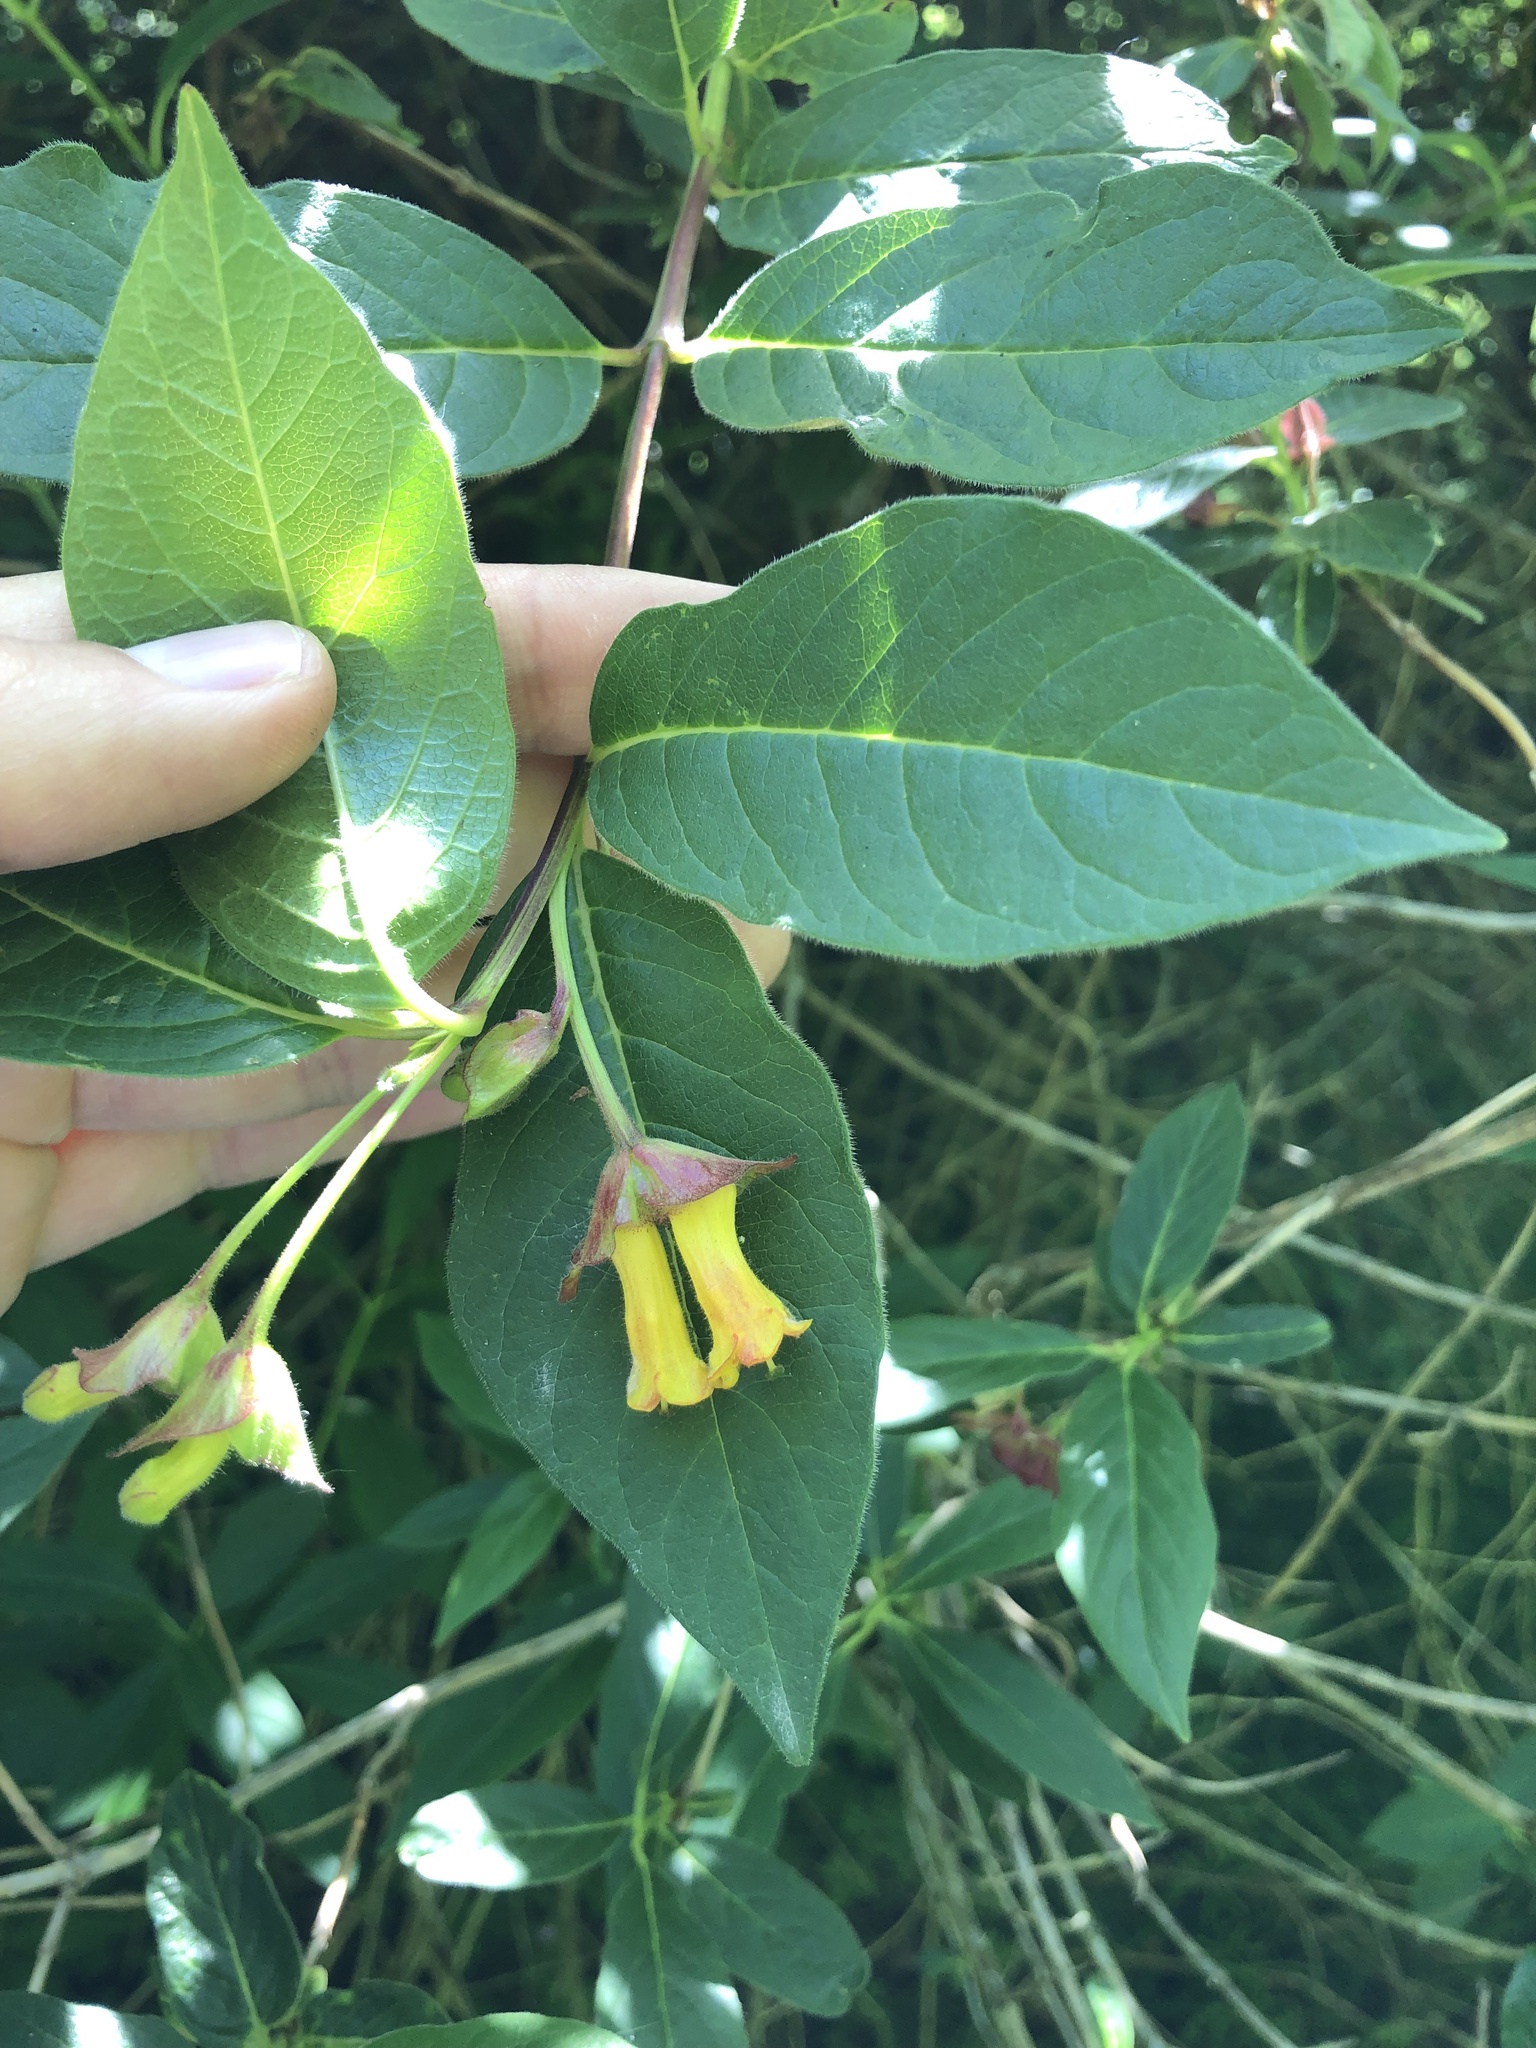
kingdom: Plantae
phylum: Tracheophyta
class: Magnoliopsida
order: Dipsacales
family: Caprifoliaceae
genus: Lonicera
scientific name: Lonicera involucrata
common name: Californian honeysuckle
